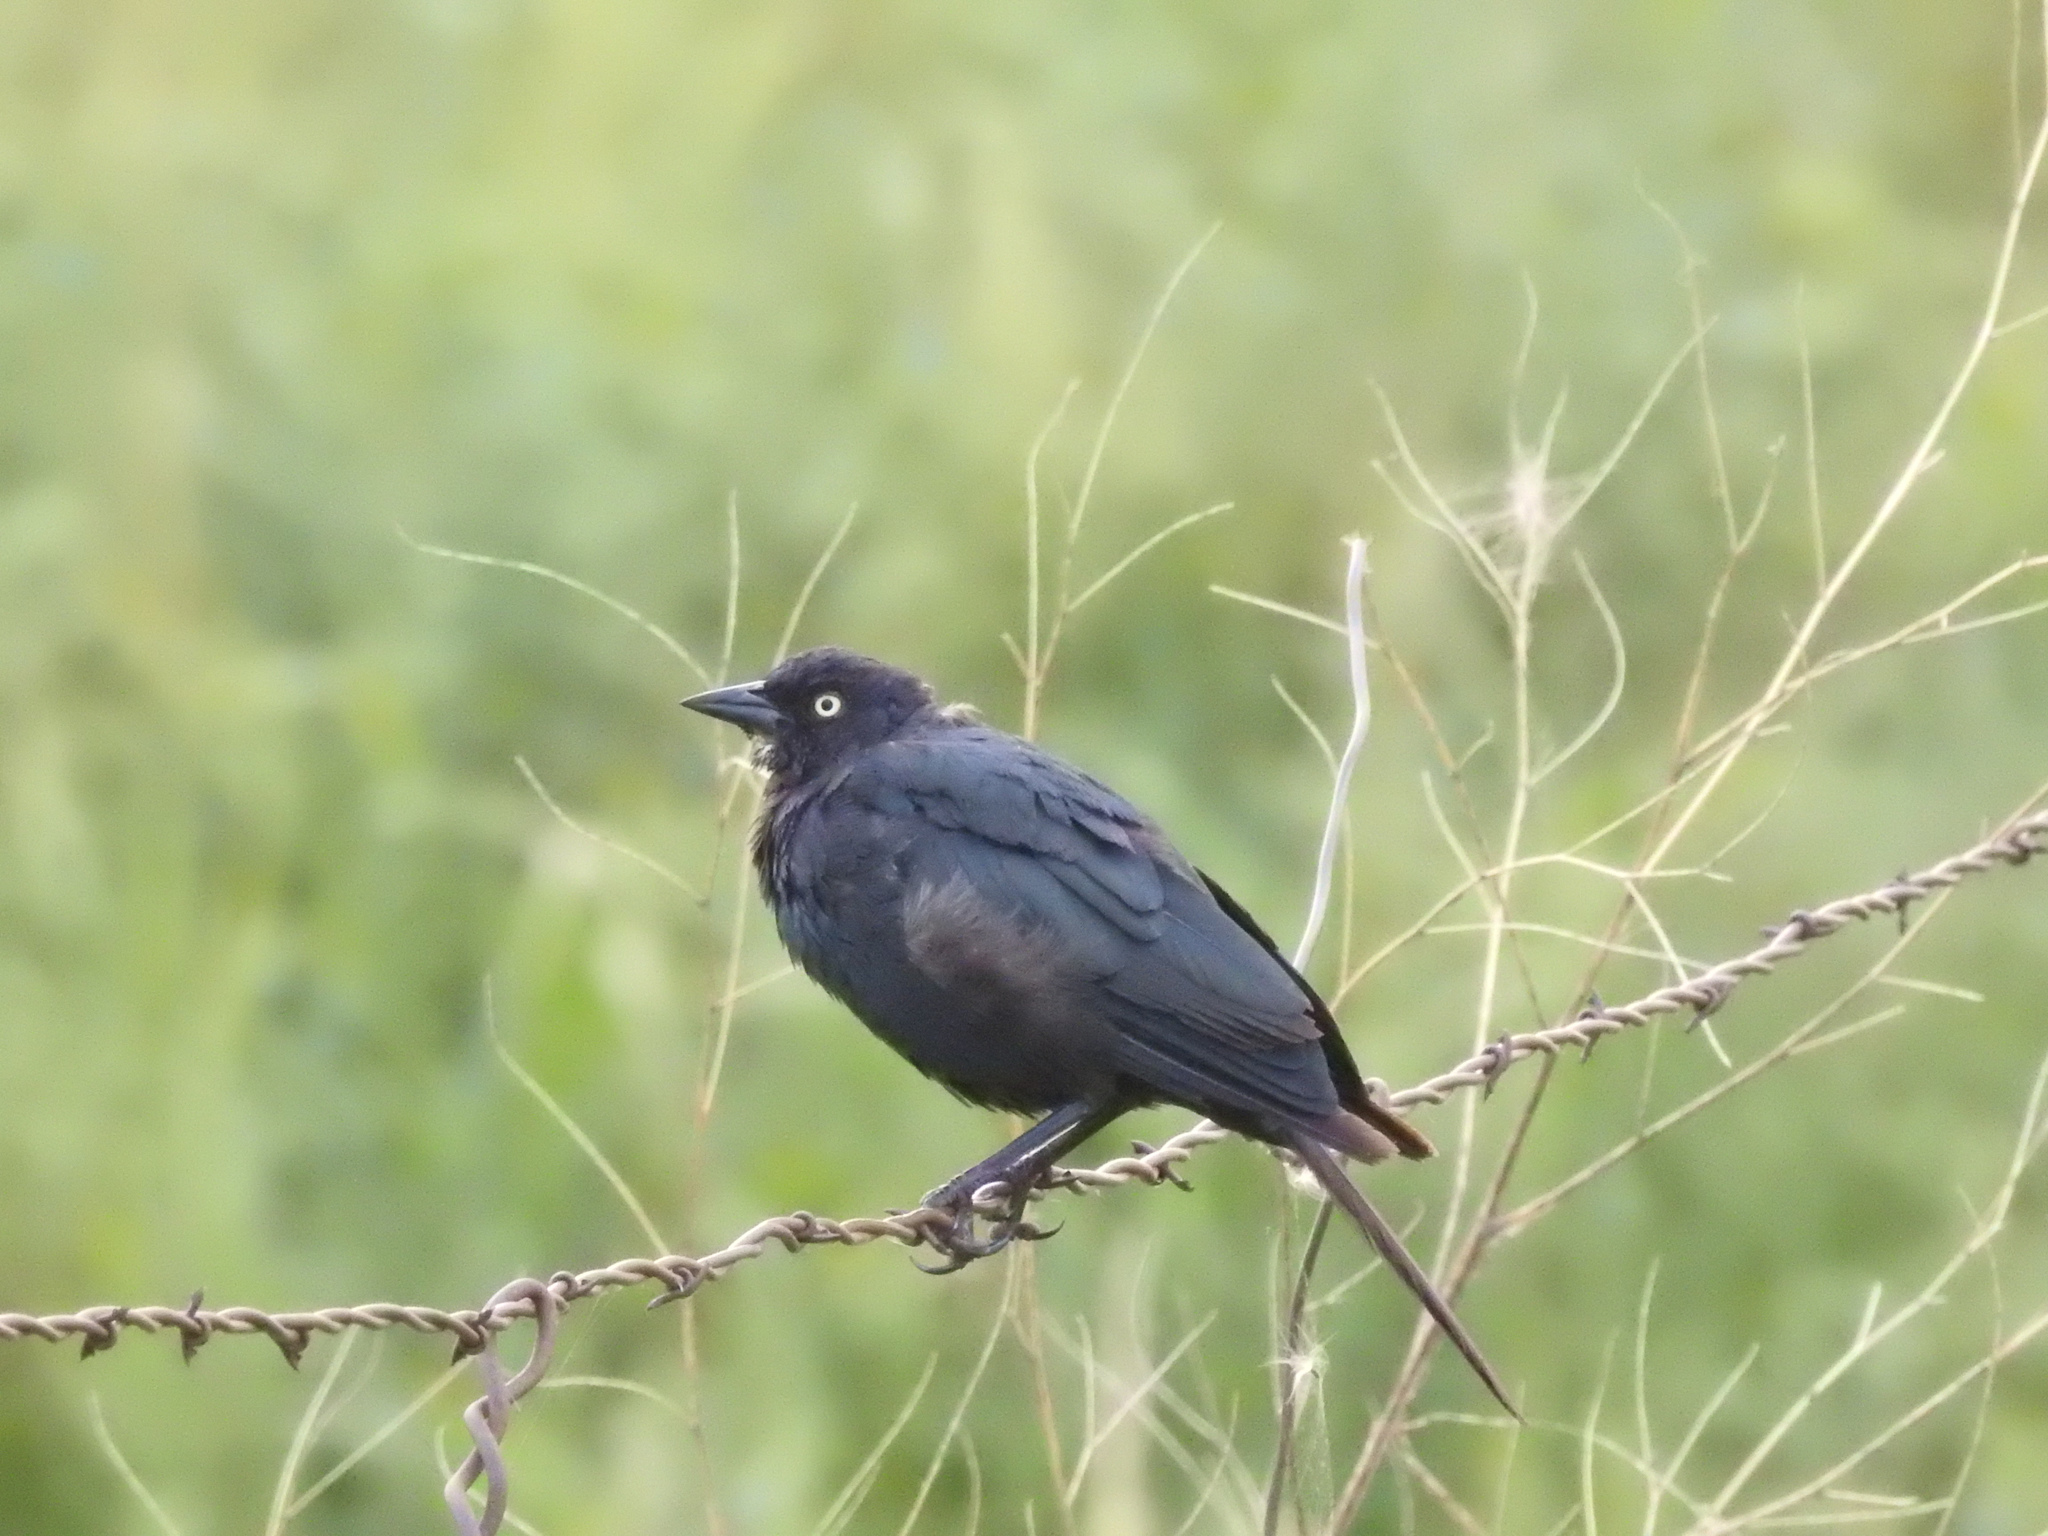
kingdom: Animalia
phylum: Chordata
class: Aves
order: Passeriformes
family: Icteridae
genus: Euphagus
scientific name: Euphagus cyanocephalus
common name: Brewer's blackbird
